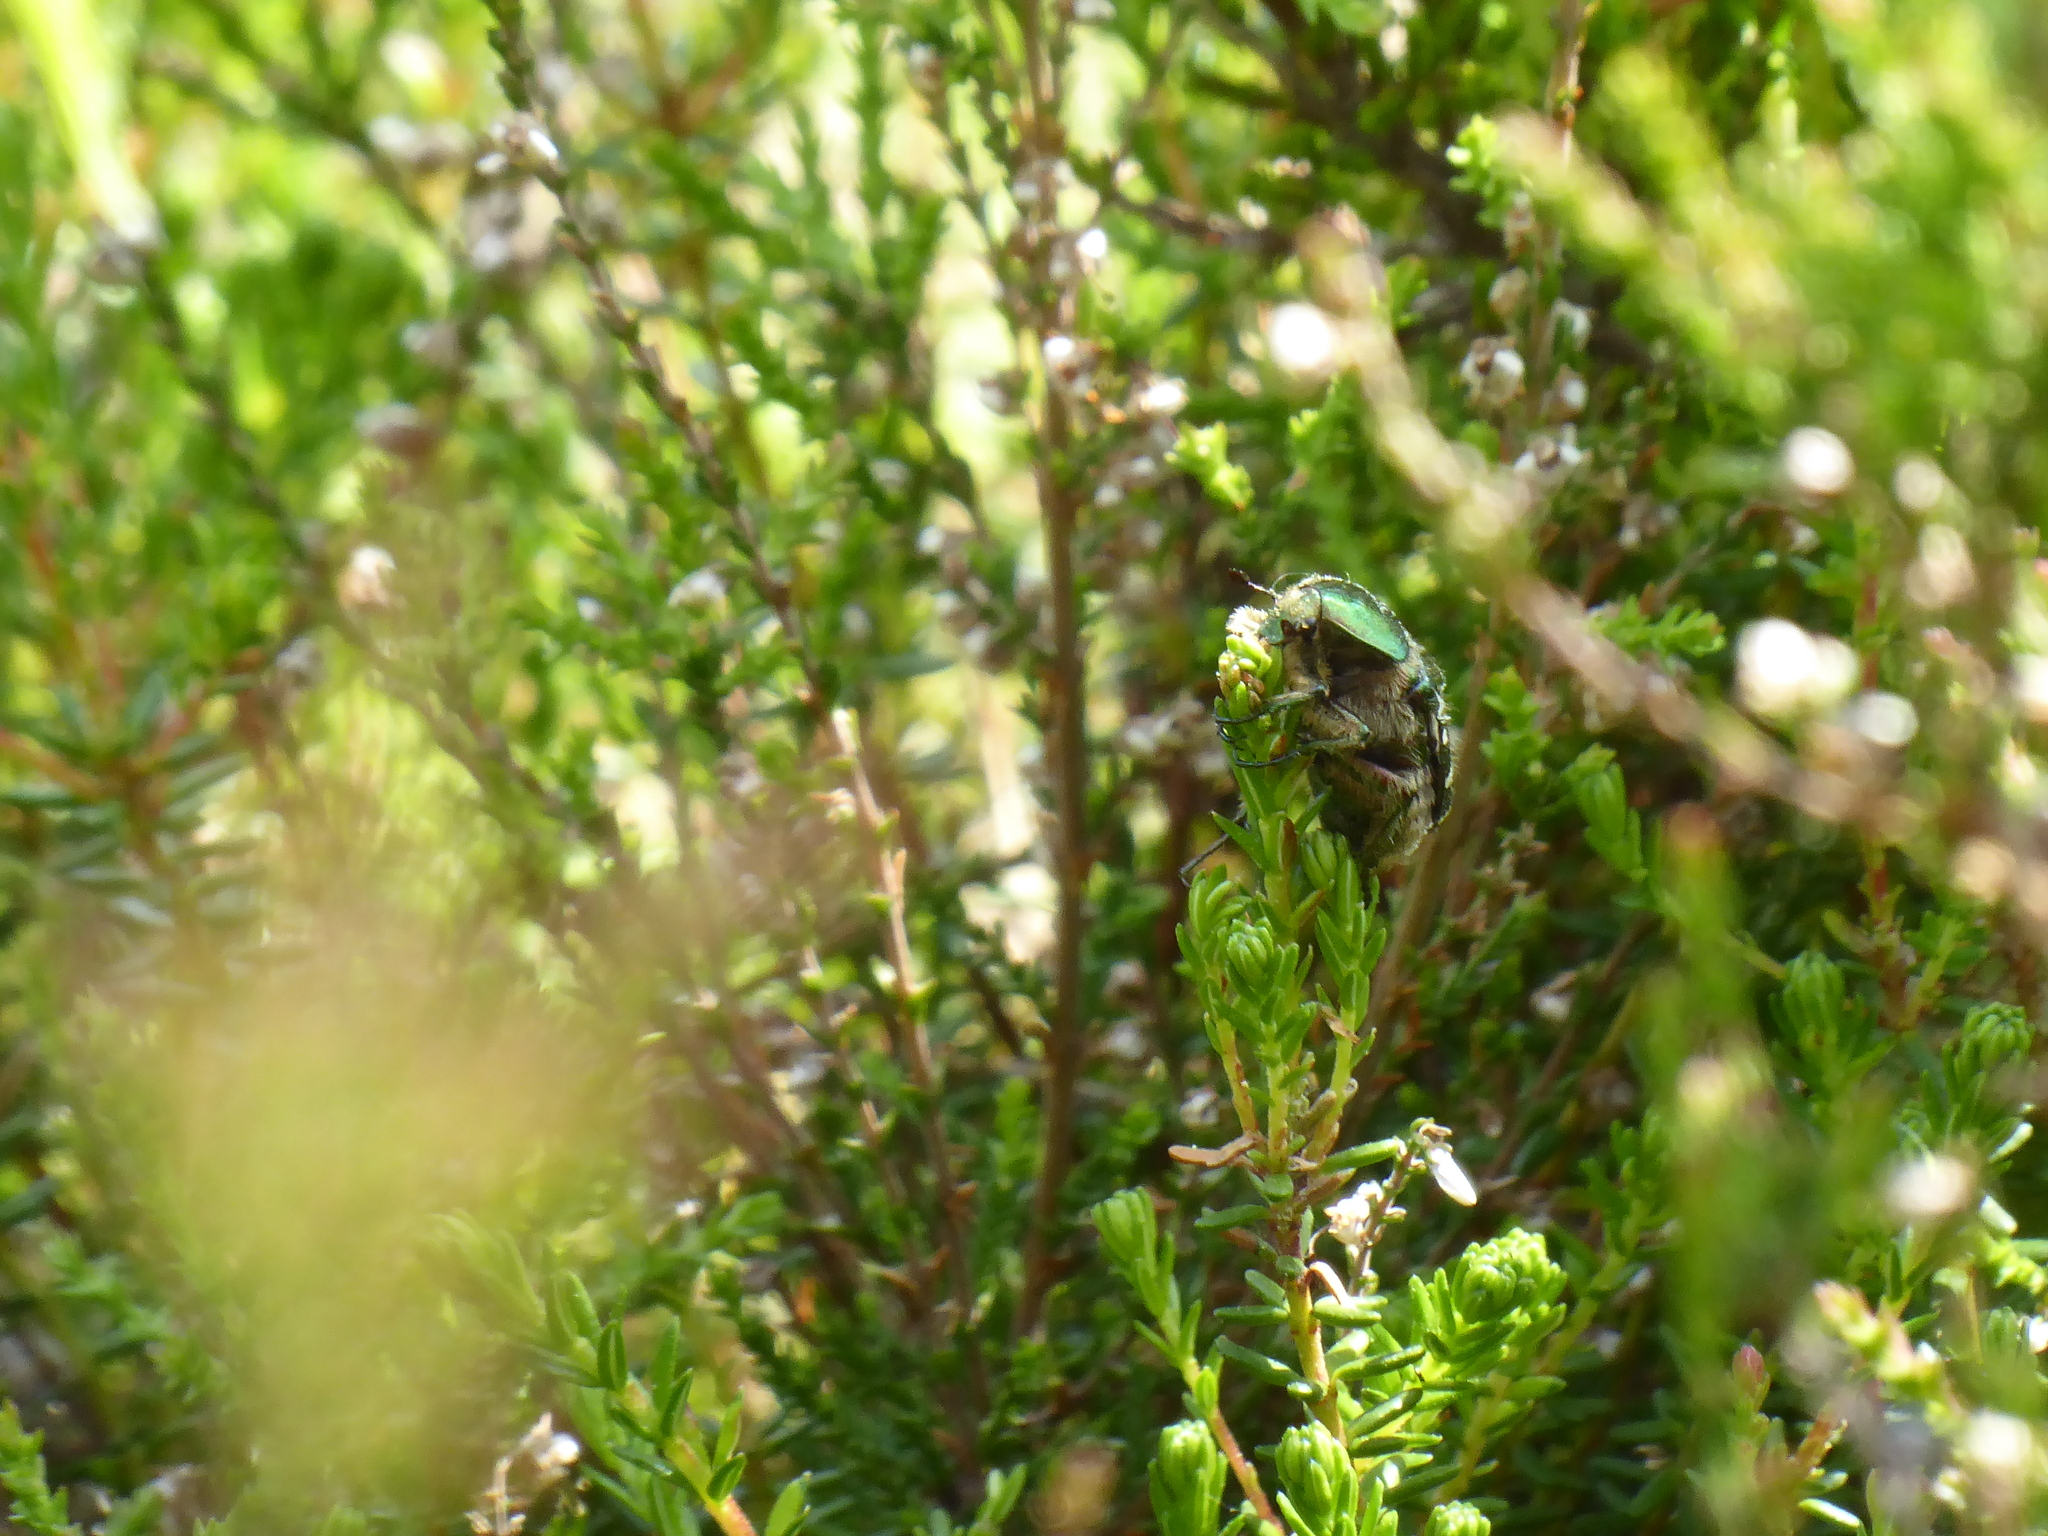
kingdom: Animalia
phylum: Arthropoda
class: Insecta
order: Coleoptera
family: Scarabaeidae
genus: Cetonia
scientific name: Cetonia aurata
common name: Rose chafer
